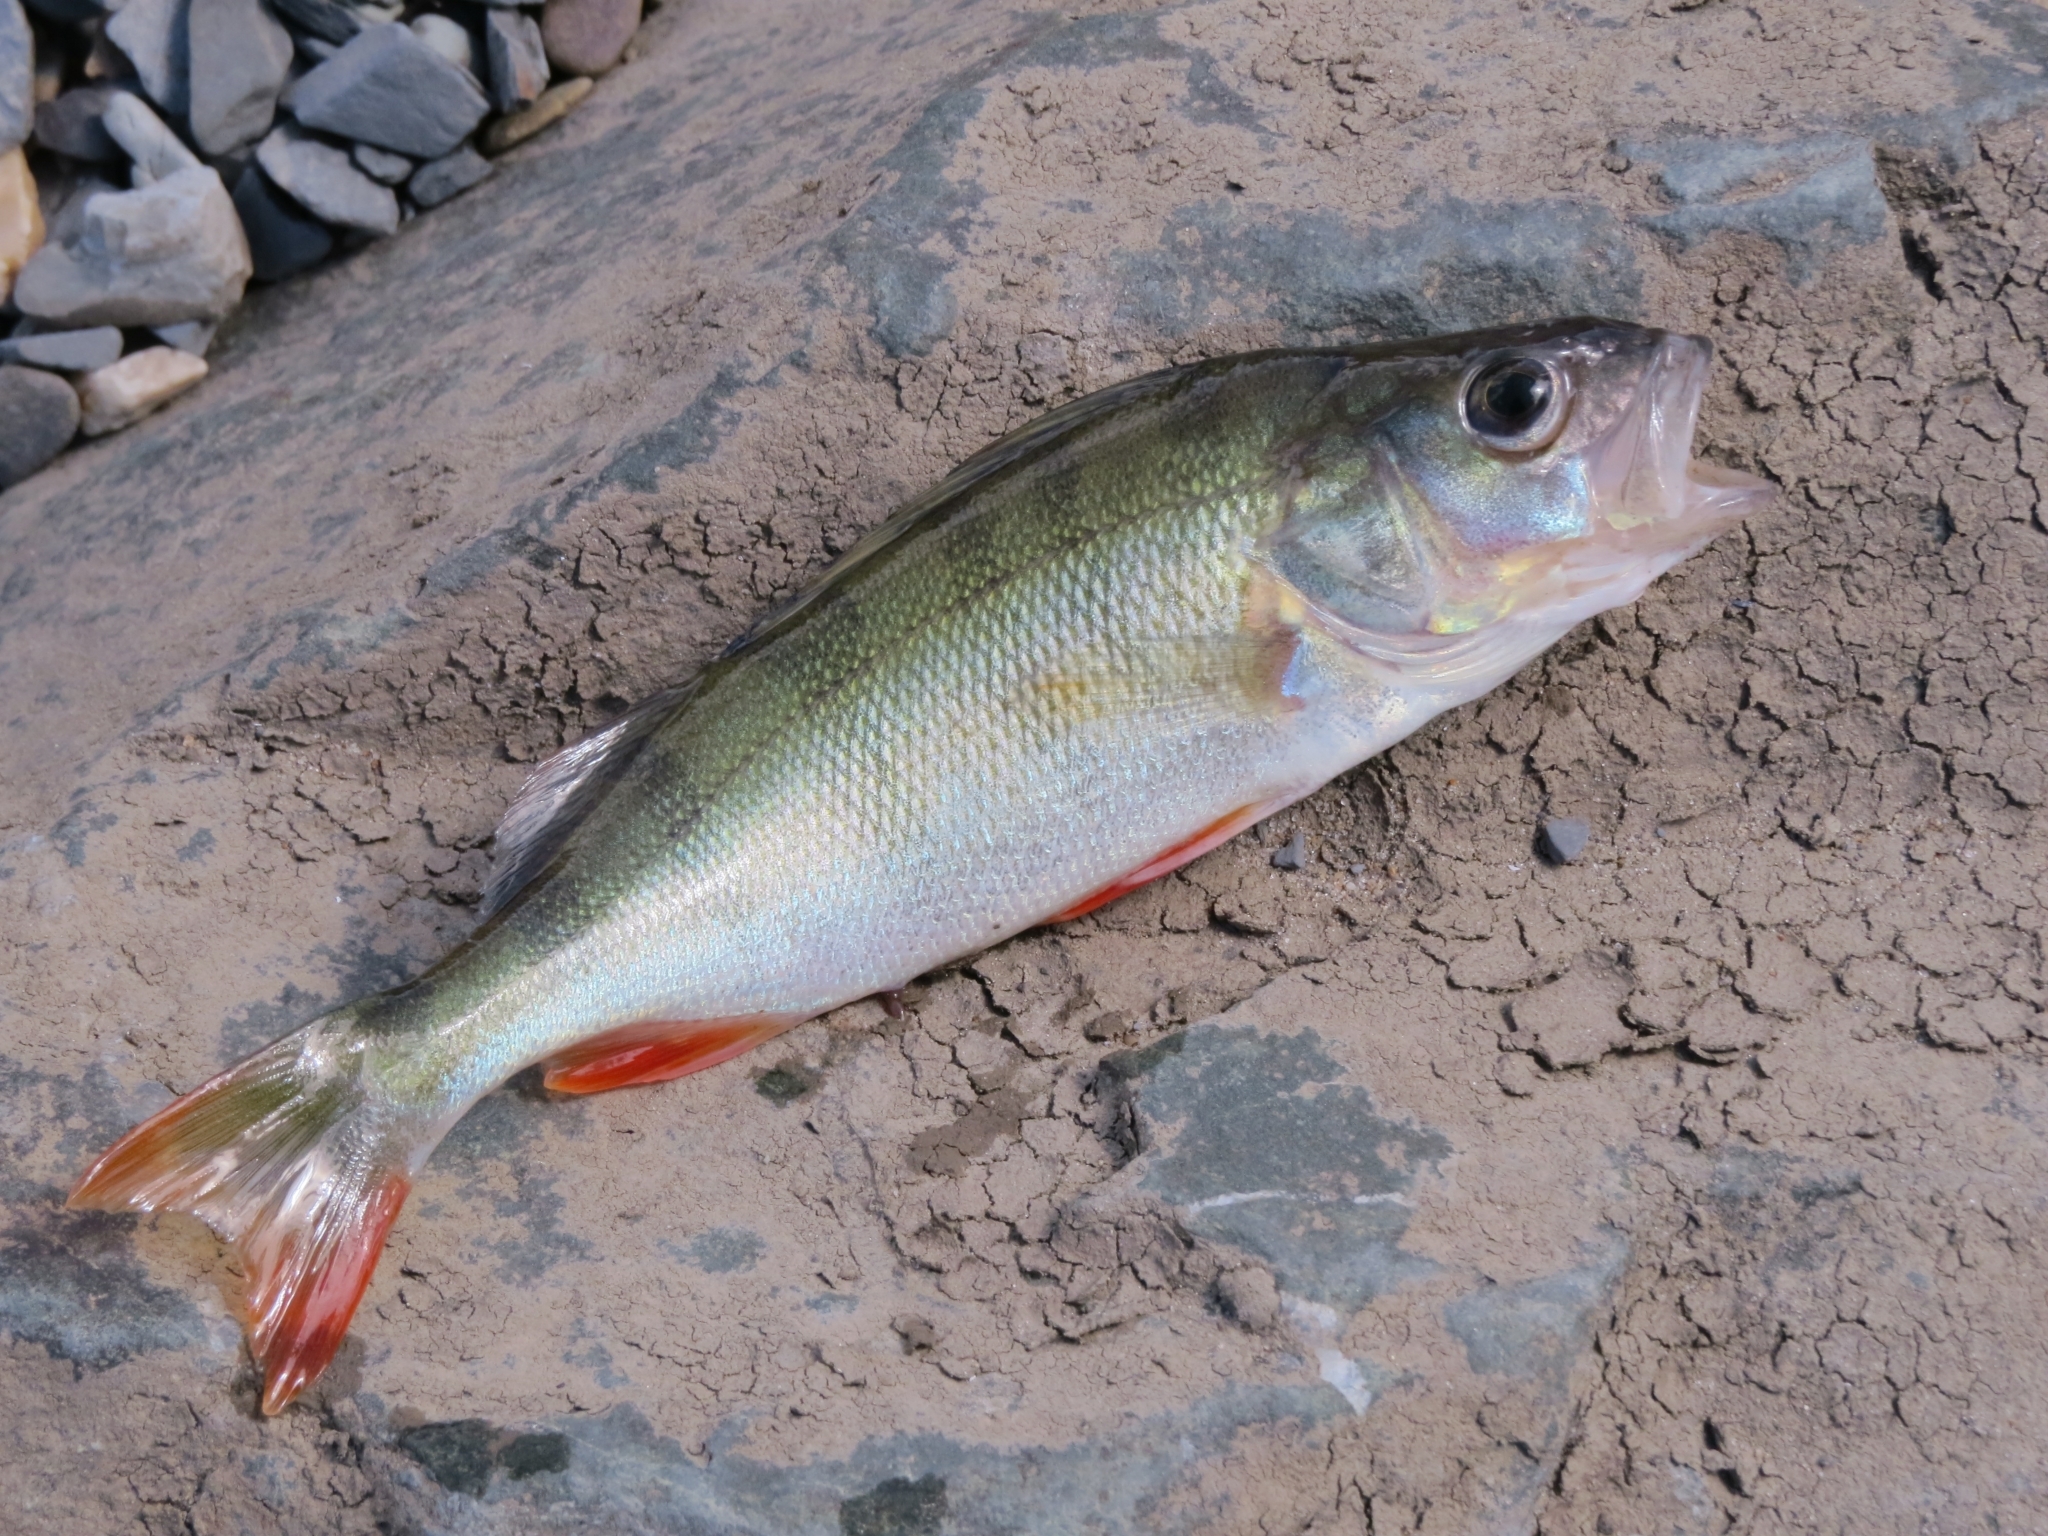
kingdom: Animalia
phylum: Chordata
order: Perciformes
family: Percidae
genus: Perca
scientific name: Perca fluviatilis
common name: Perch
